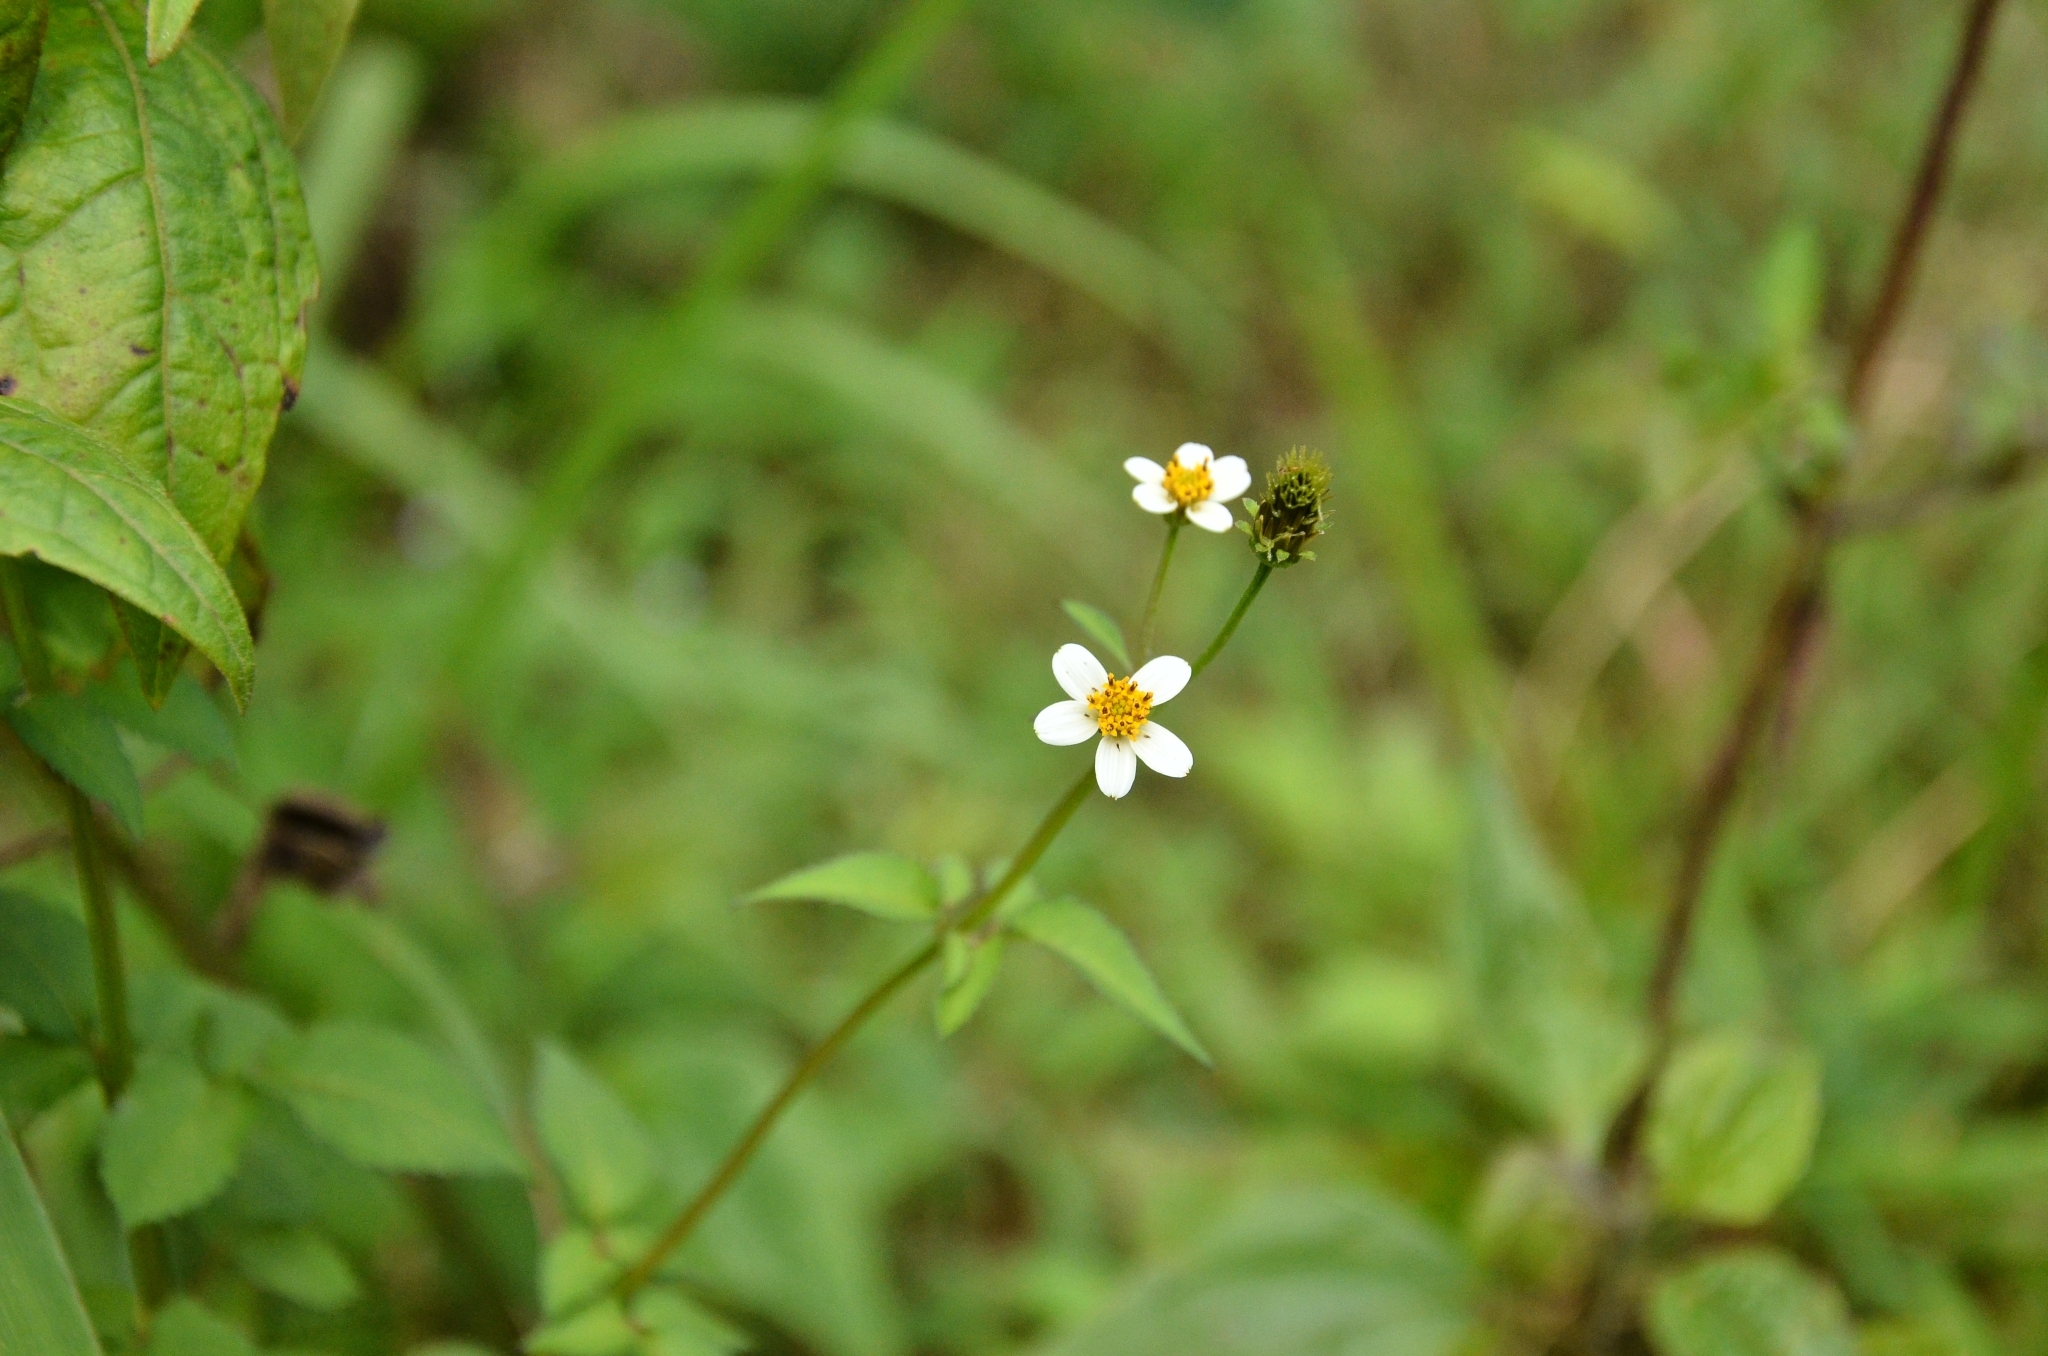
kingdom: Plantae
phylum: Tracheophyta
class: Magnoliopsida
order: Asterales
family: Asteraceae
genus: Bidens
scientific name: Bidens alba
